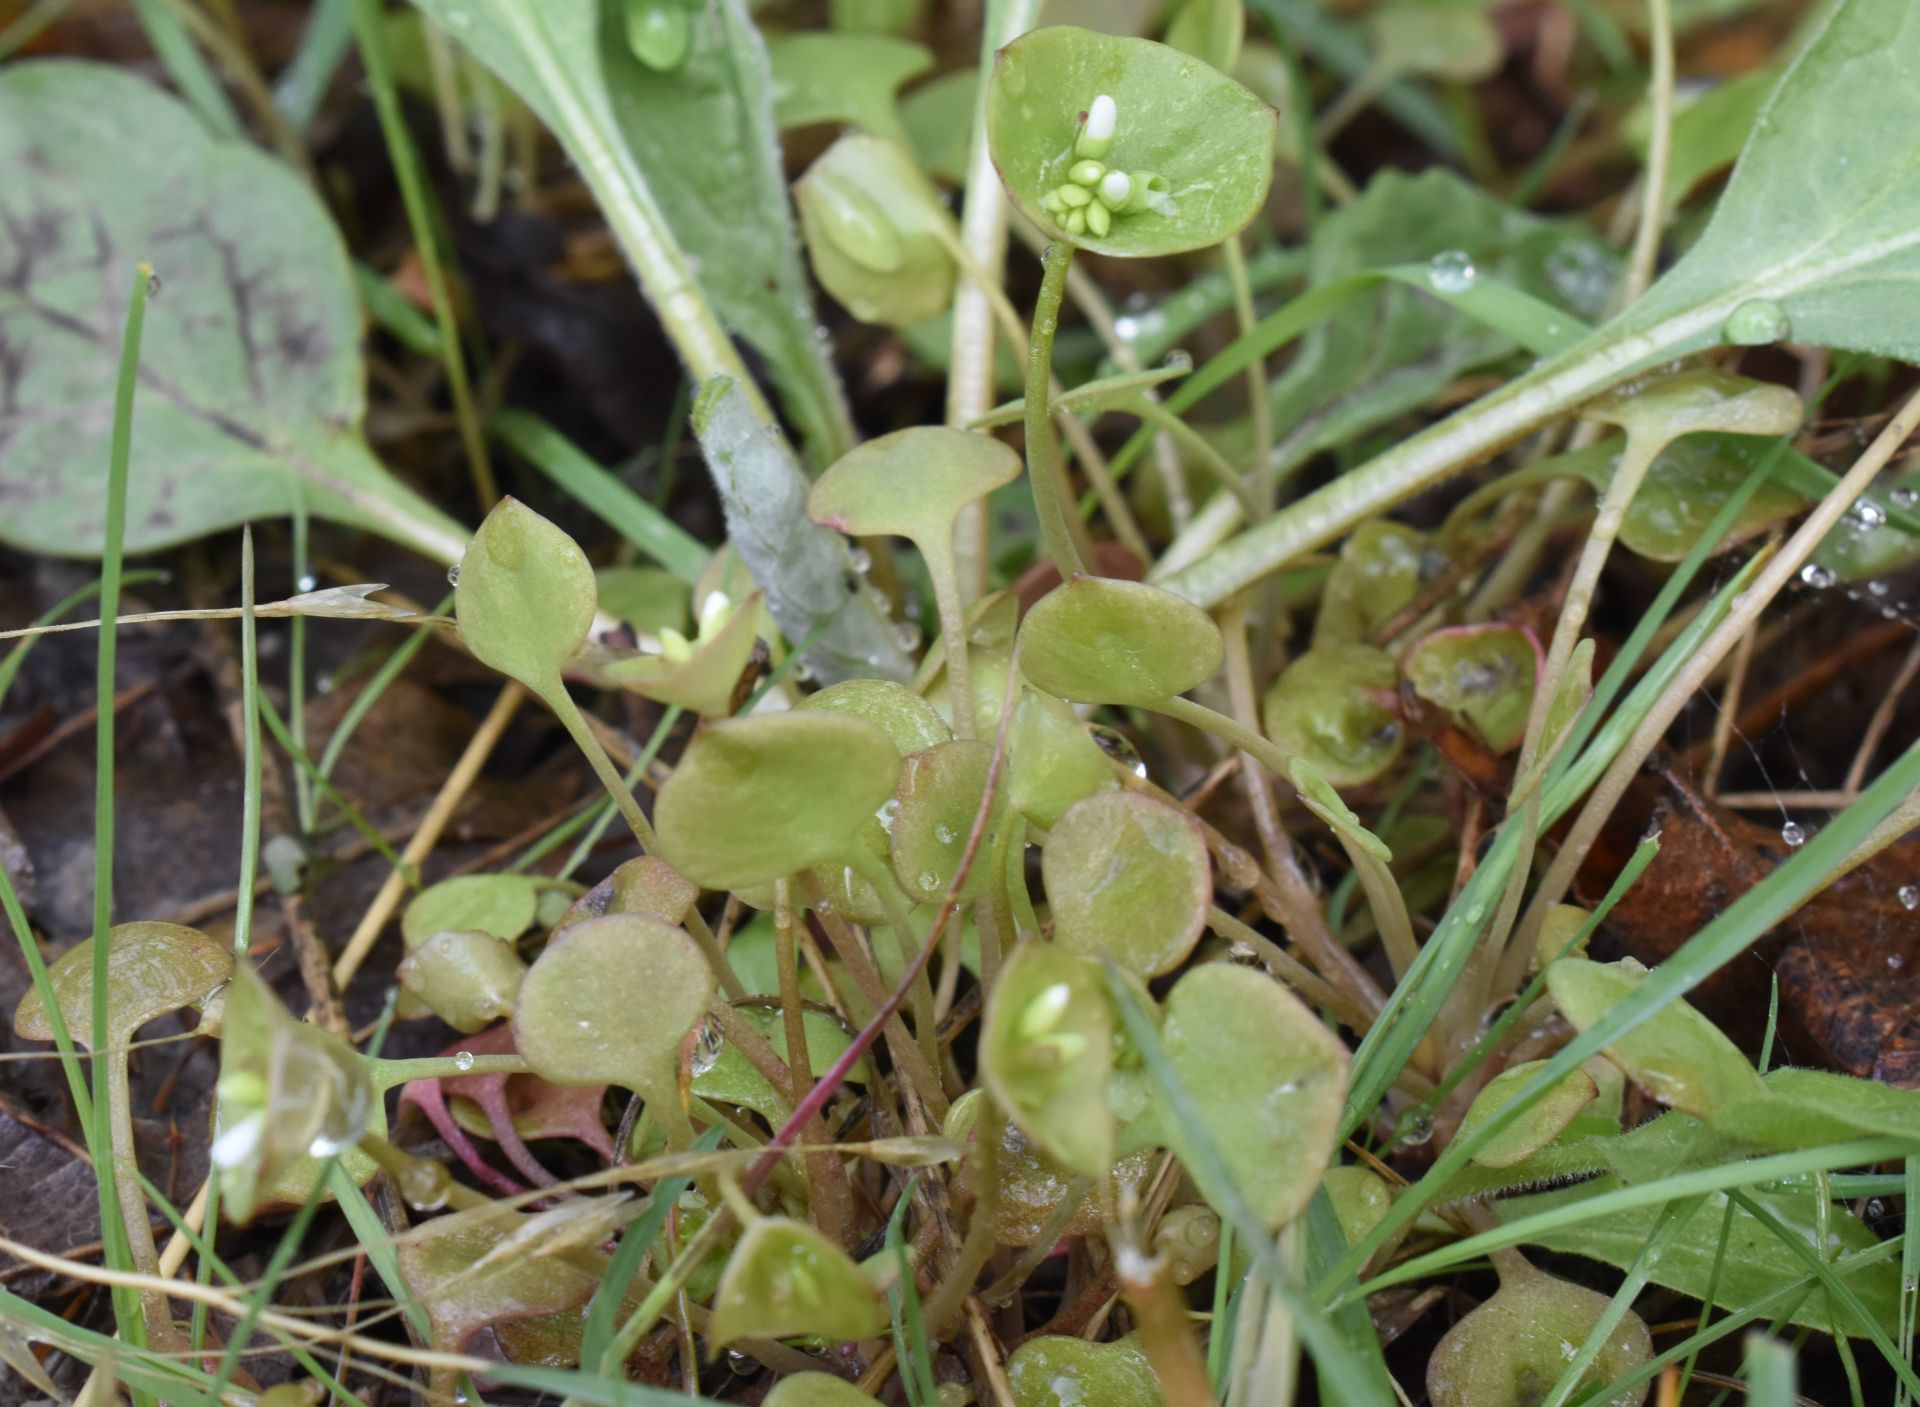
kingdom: Plantae
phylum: Tracheophyta
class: Magnoliopsida
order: Caryophyllales
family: Montiaceae
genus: Claytonia
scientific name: Claytonia perfoliata
